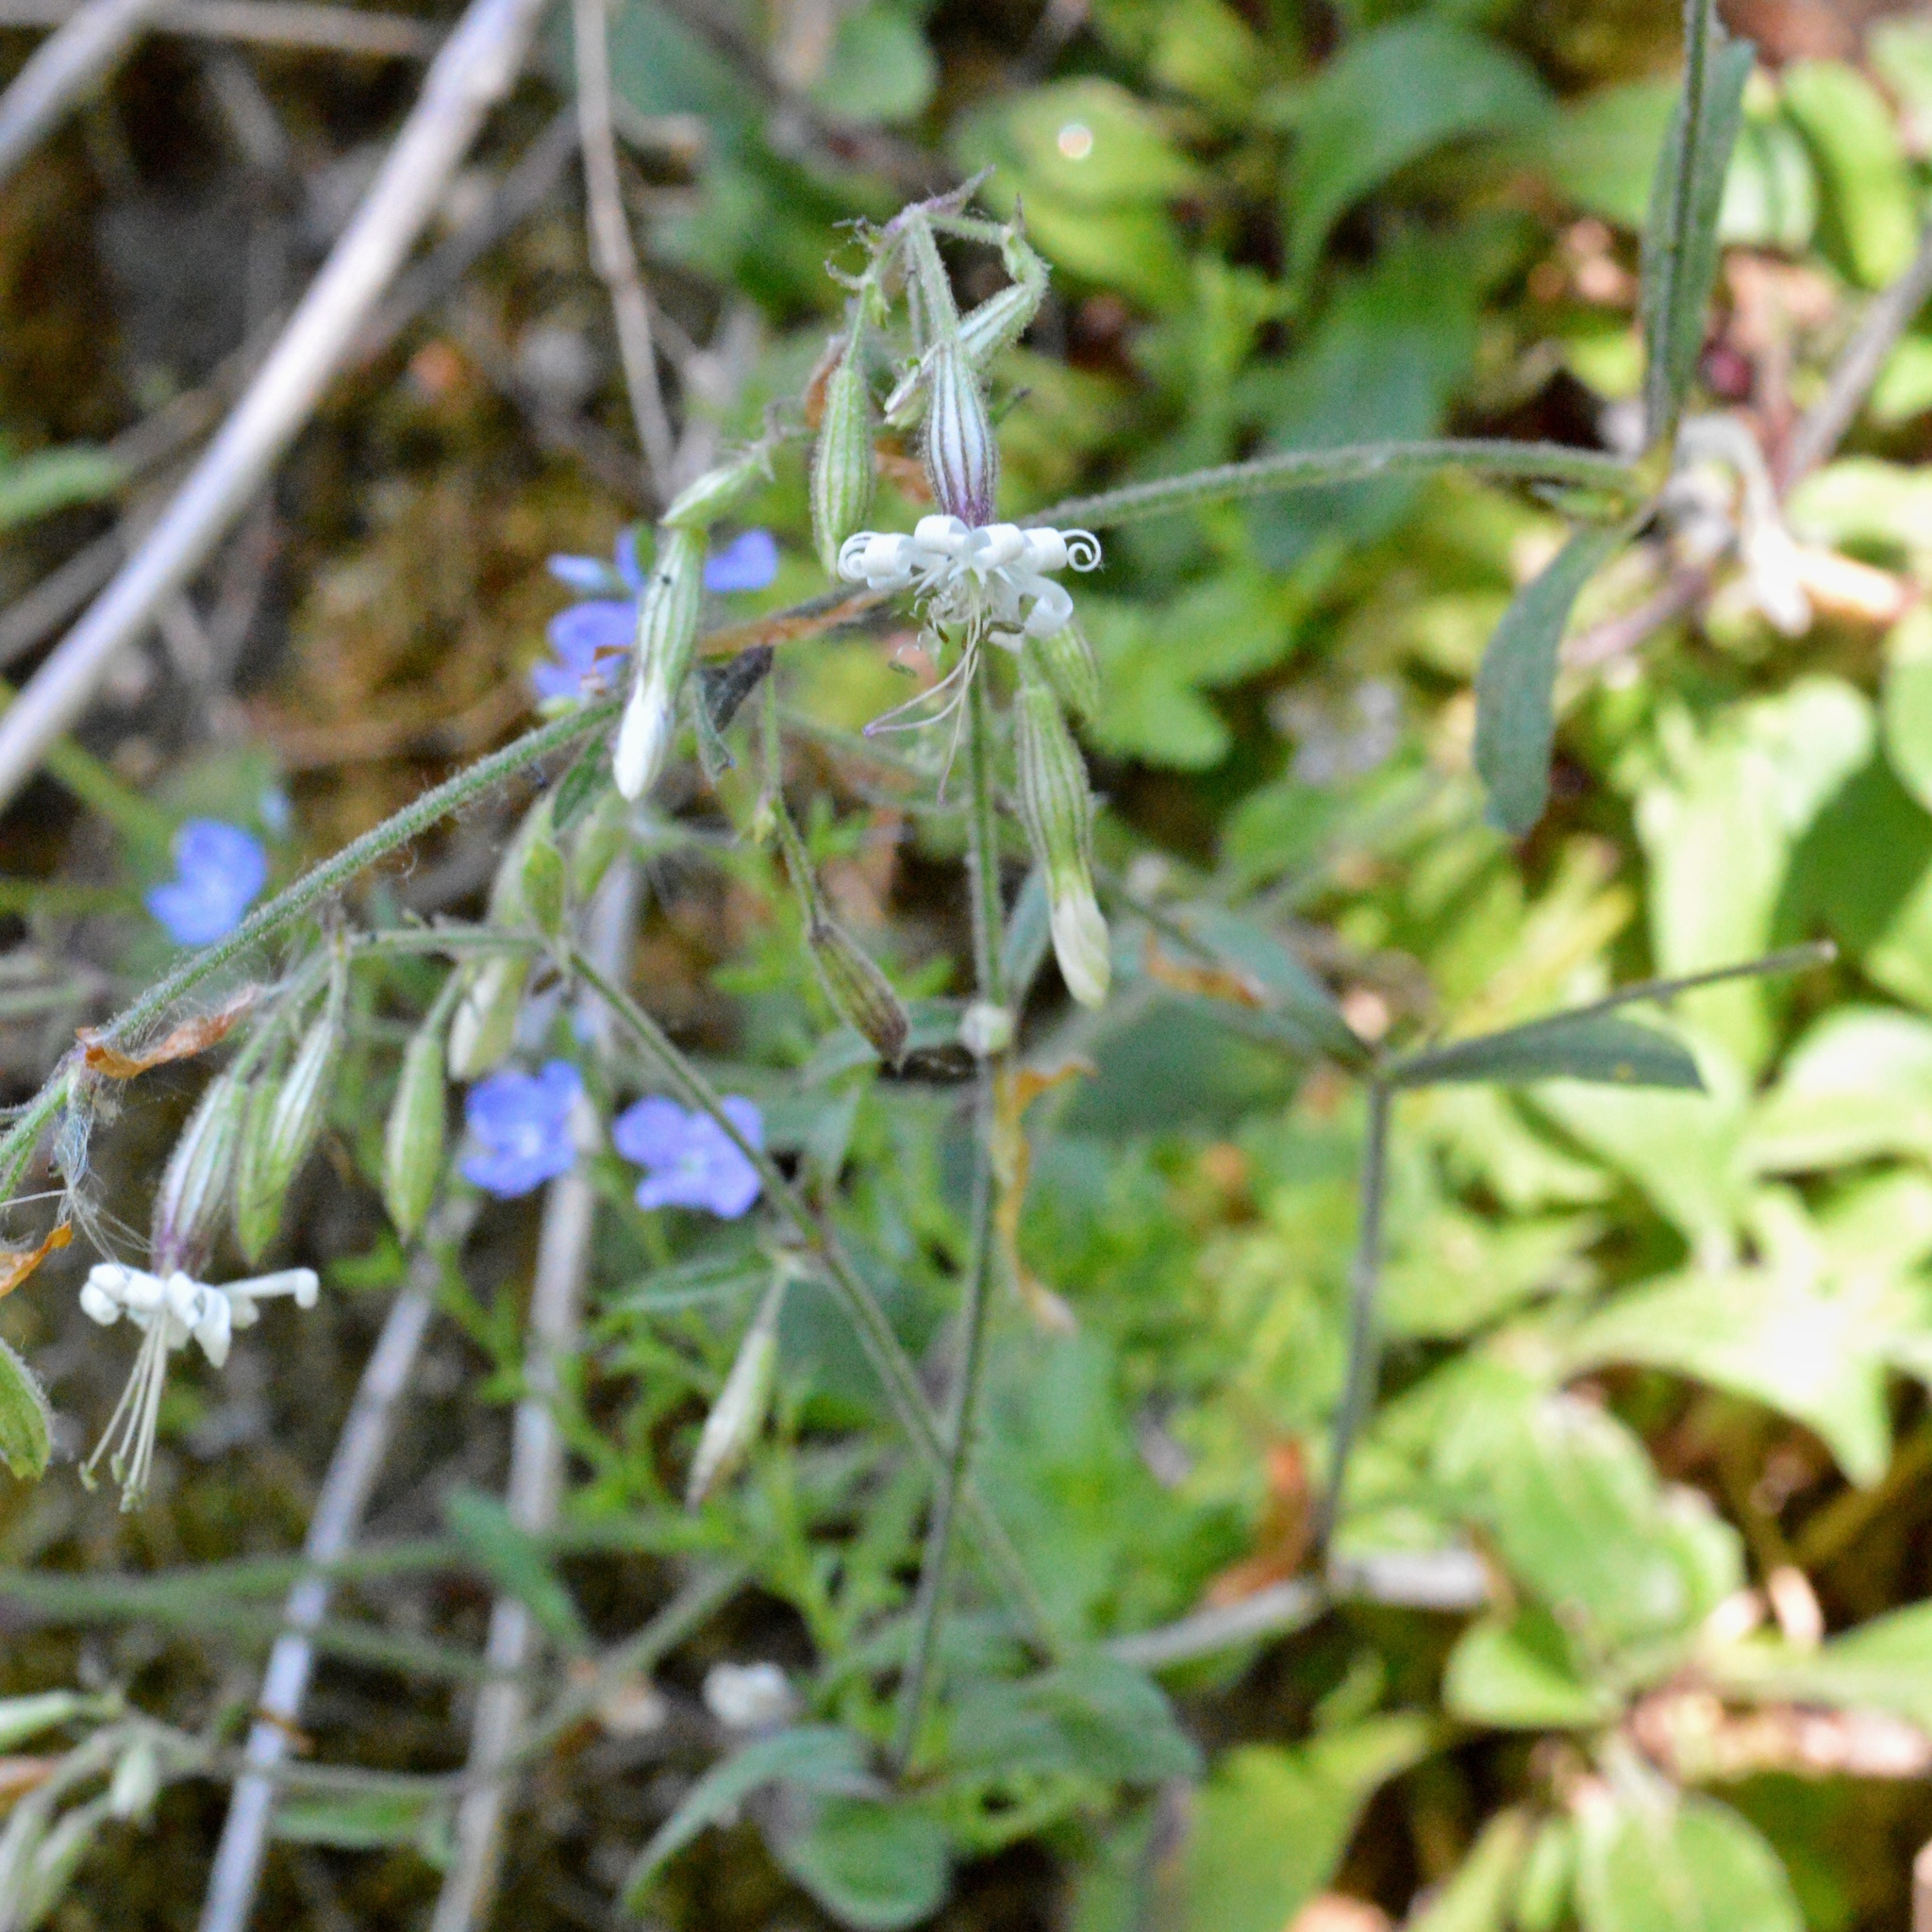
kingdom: Plantae
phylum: Tracheophyta
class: Magnoliopsida
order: Caryophyllales
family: Caryophyllaceae
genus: Silene
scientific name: Silene nutans
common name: Nottingham catchfly
